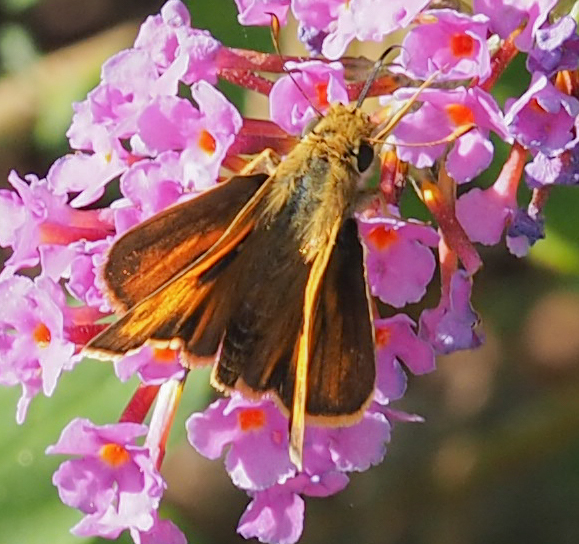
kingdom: Animalia
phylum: Arthropoda
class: Insecta
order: Lepidoptera
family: Hesperiidae
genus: Atalopedes
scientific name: Atalopedes
